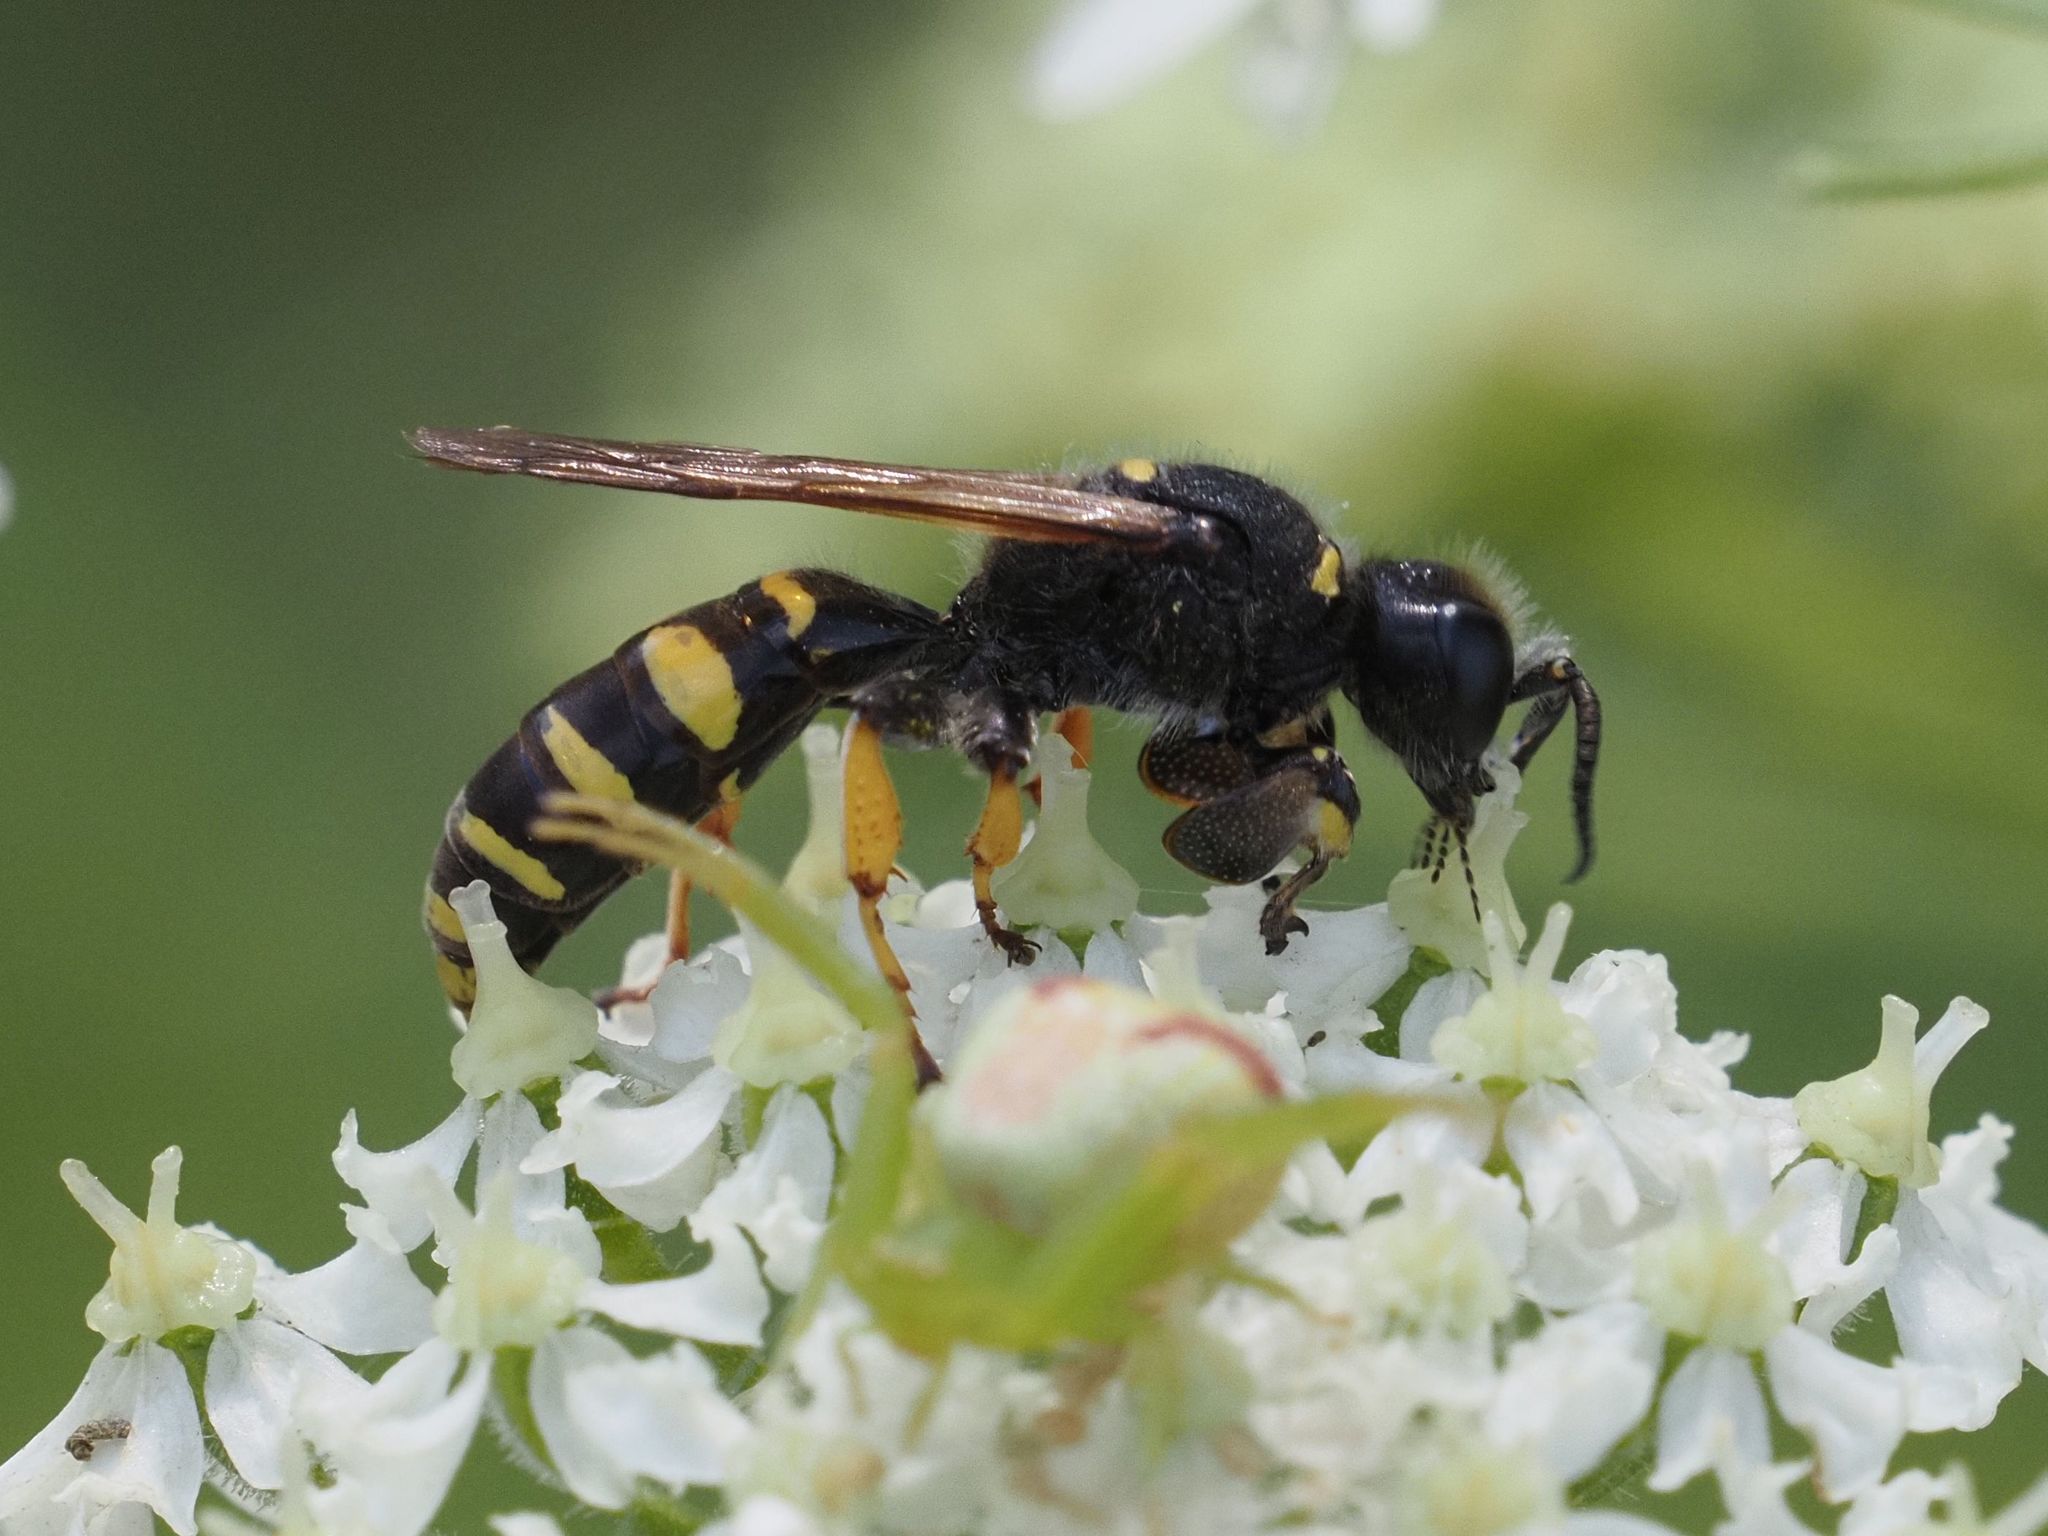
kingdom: Animalia
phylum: Arthropoda
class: Insecta
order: Hymenoptera
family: Crabronidae
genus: Crabro
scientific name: Crabro cribrarius
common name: Slender bodied digger wasp
